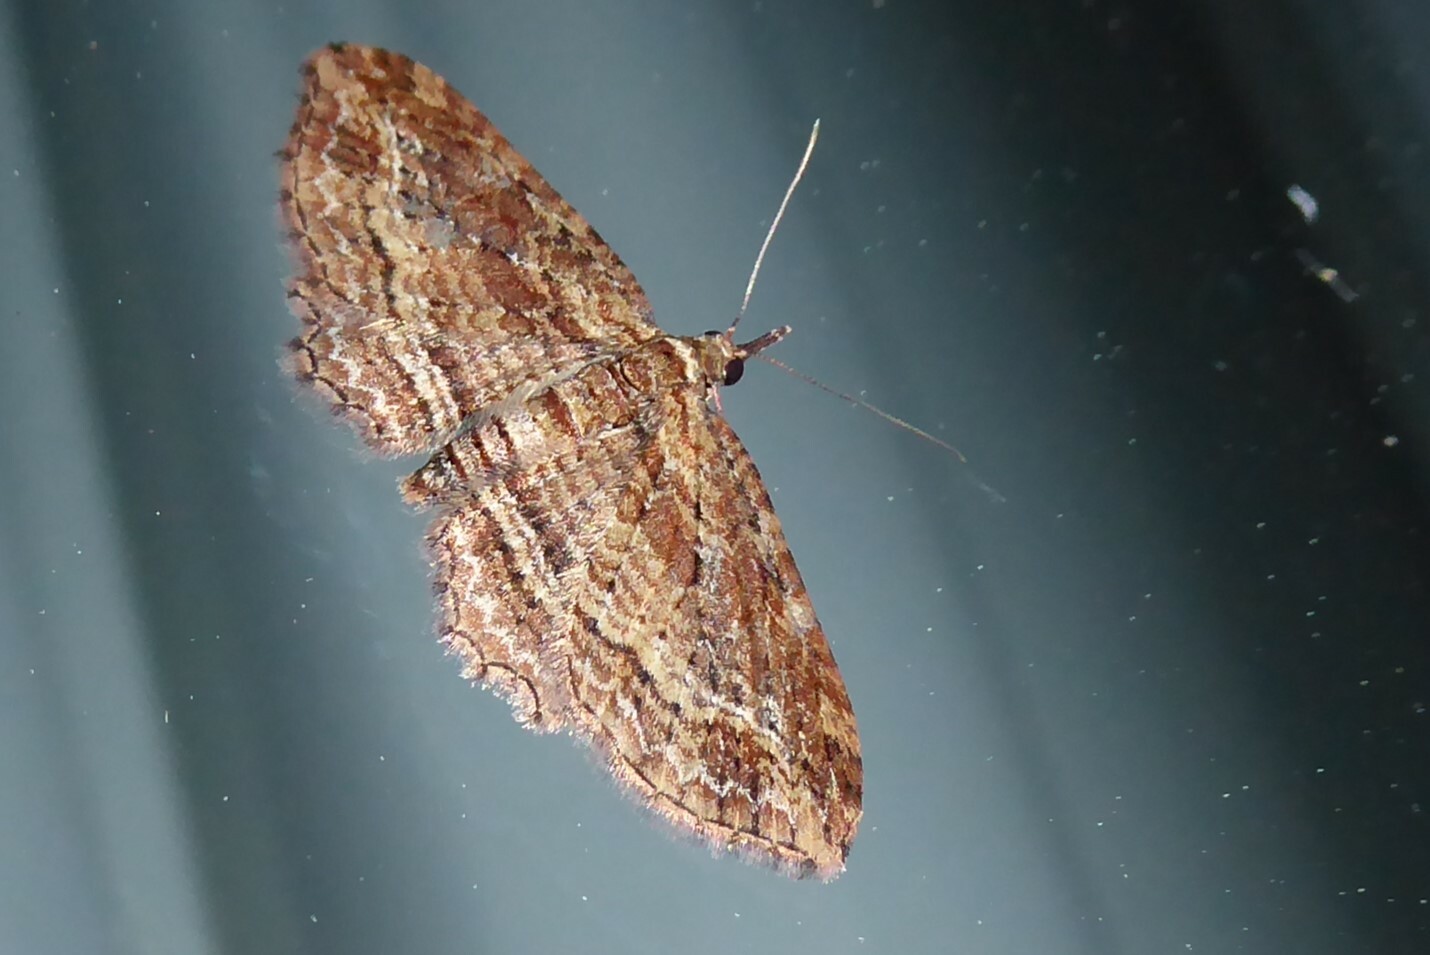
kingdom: Animalia
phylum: Arthropoda
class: Insecta
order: Lepidoptera
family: Geometridae
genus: Chloroclystis
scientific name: Chloroclystis filata
